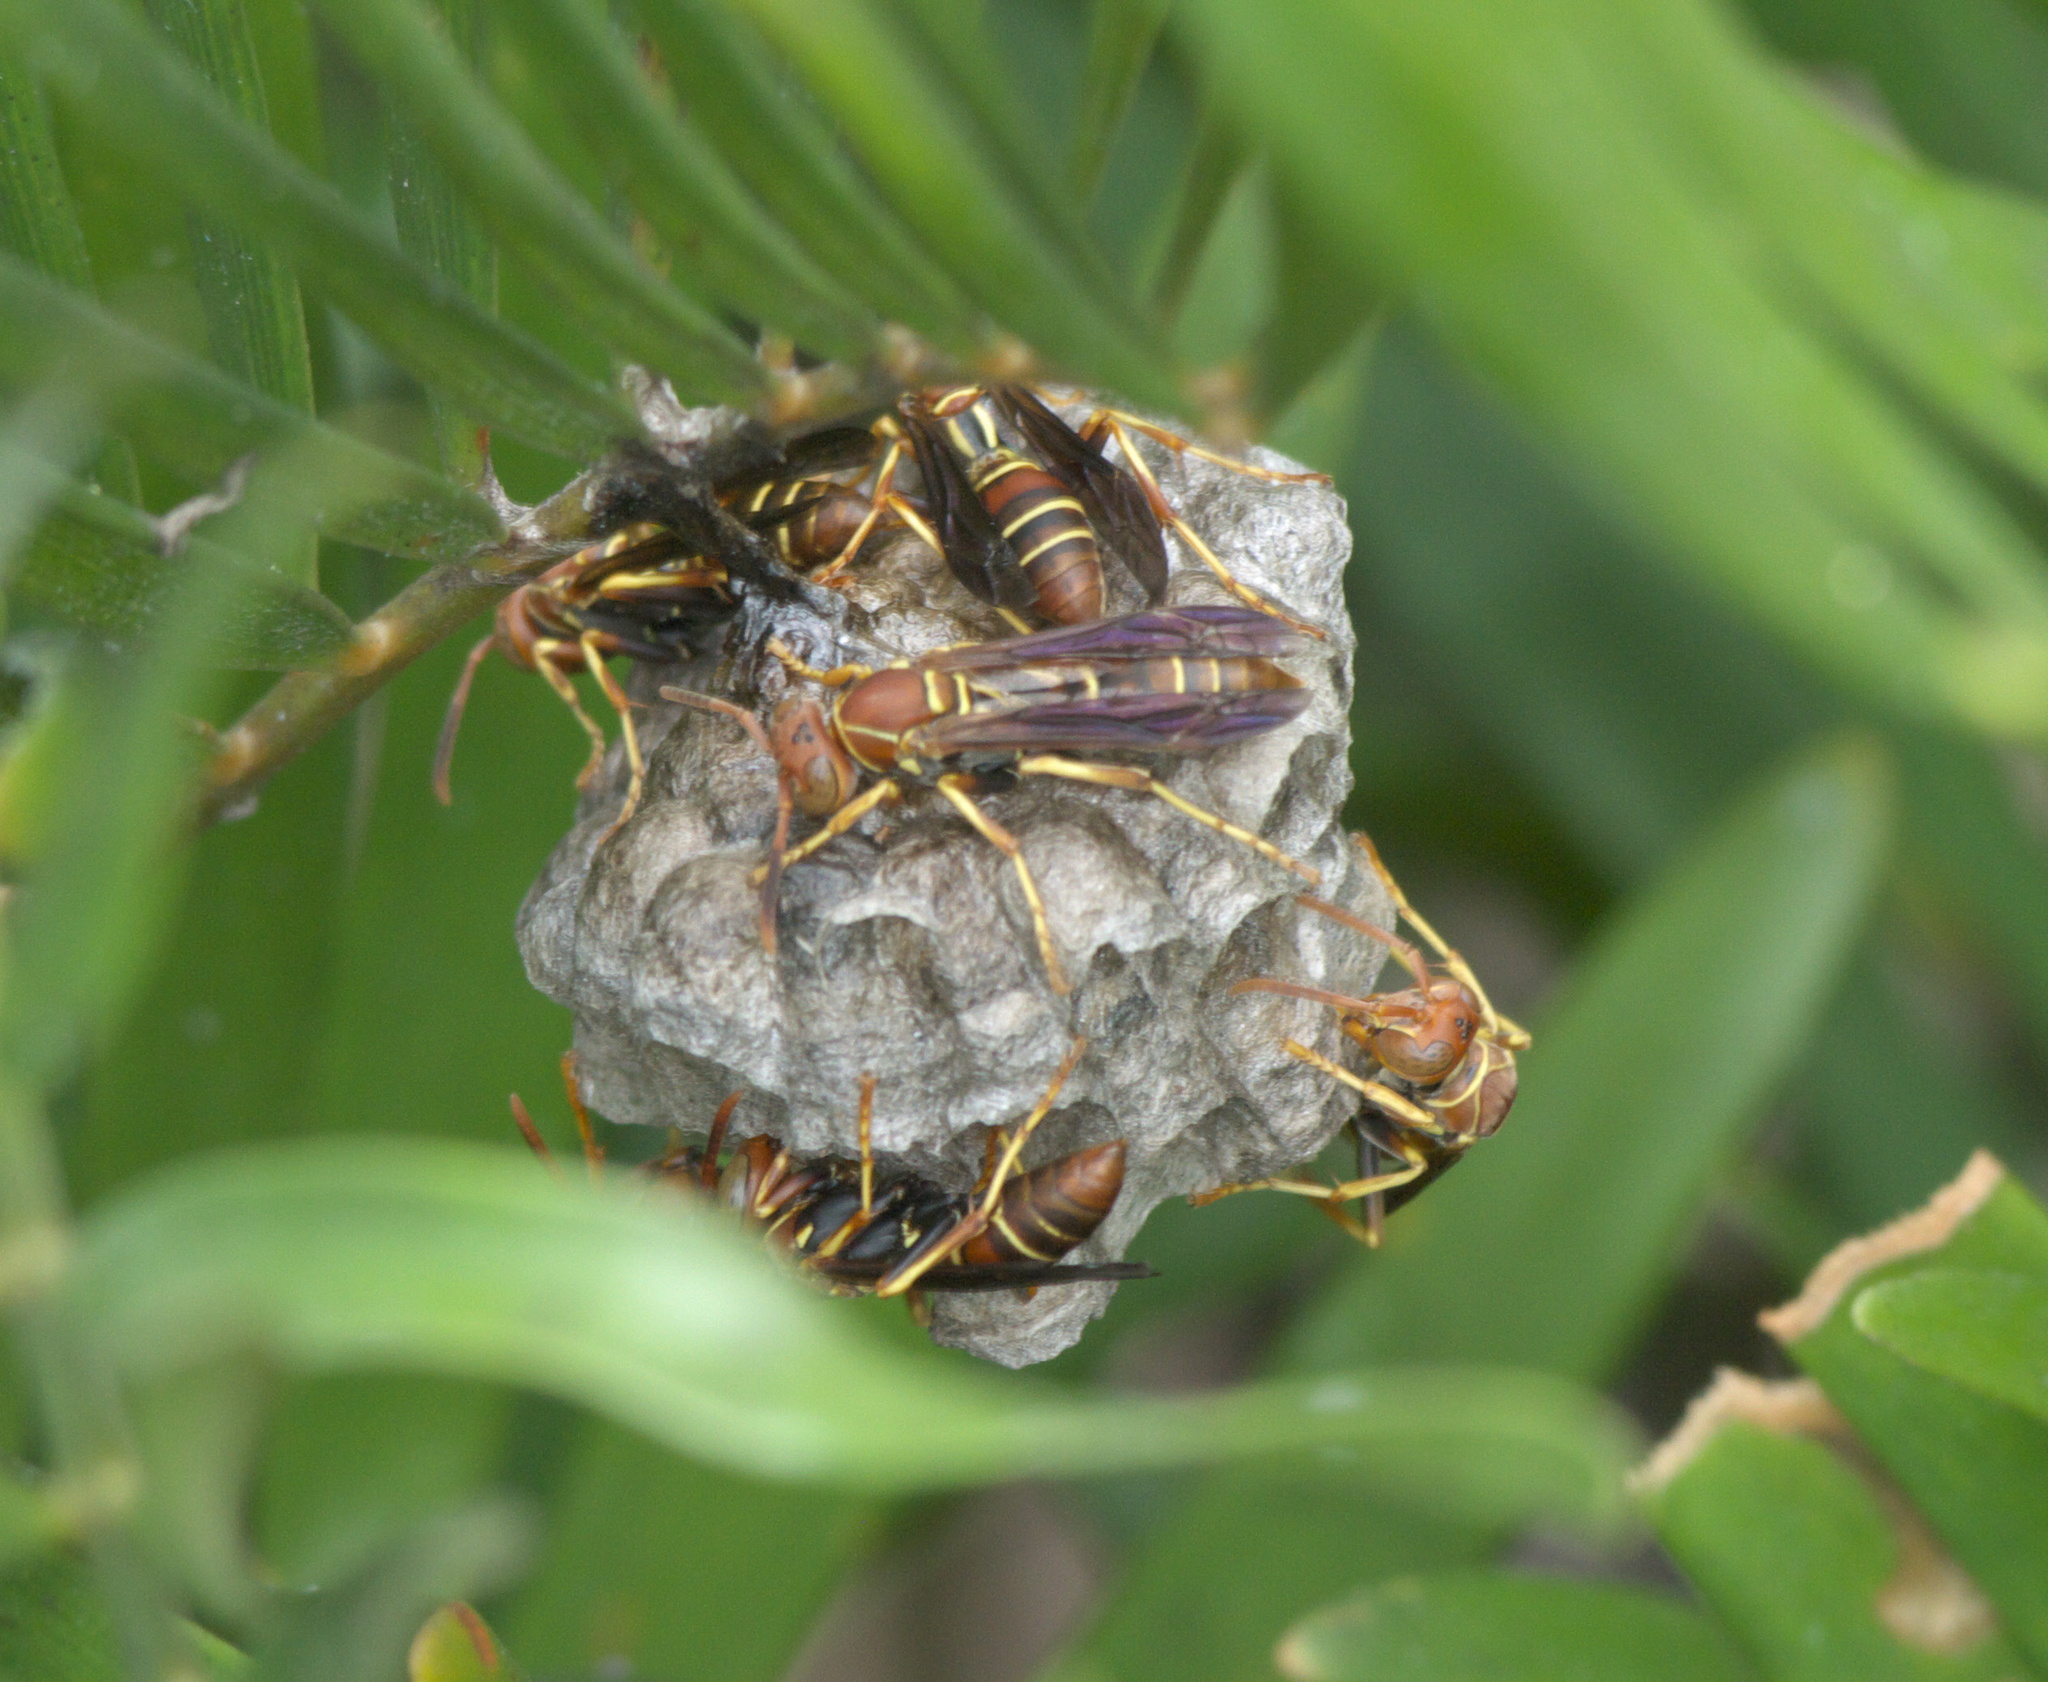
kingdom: Animalia
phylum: Arthropoda
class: Insecta
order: Hymenoptera
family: Eumenidae
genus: Polistes
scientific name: Polistes dorsalis
